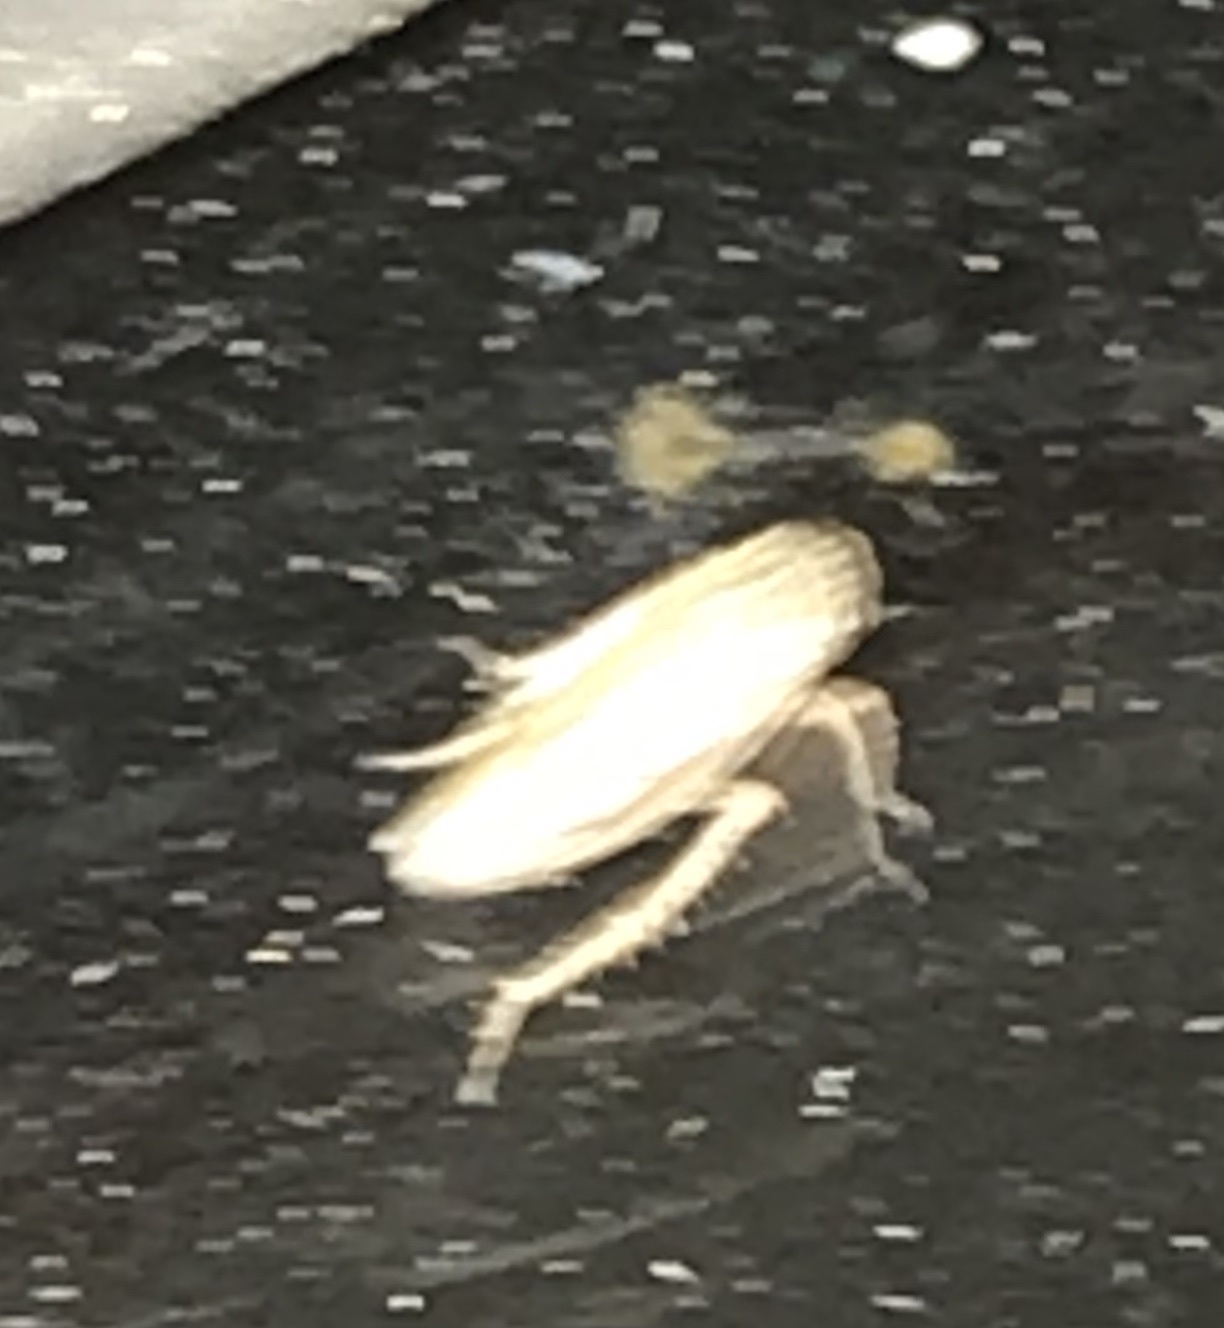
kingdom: Animalia
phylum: Arthropoda
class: Insecta
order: Hemiptera
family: Cicadellidae
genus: Exitianus
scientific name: Exitianus exitiosus
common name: Gray lawn leafhopper
